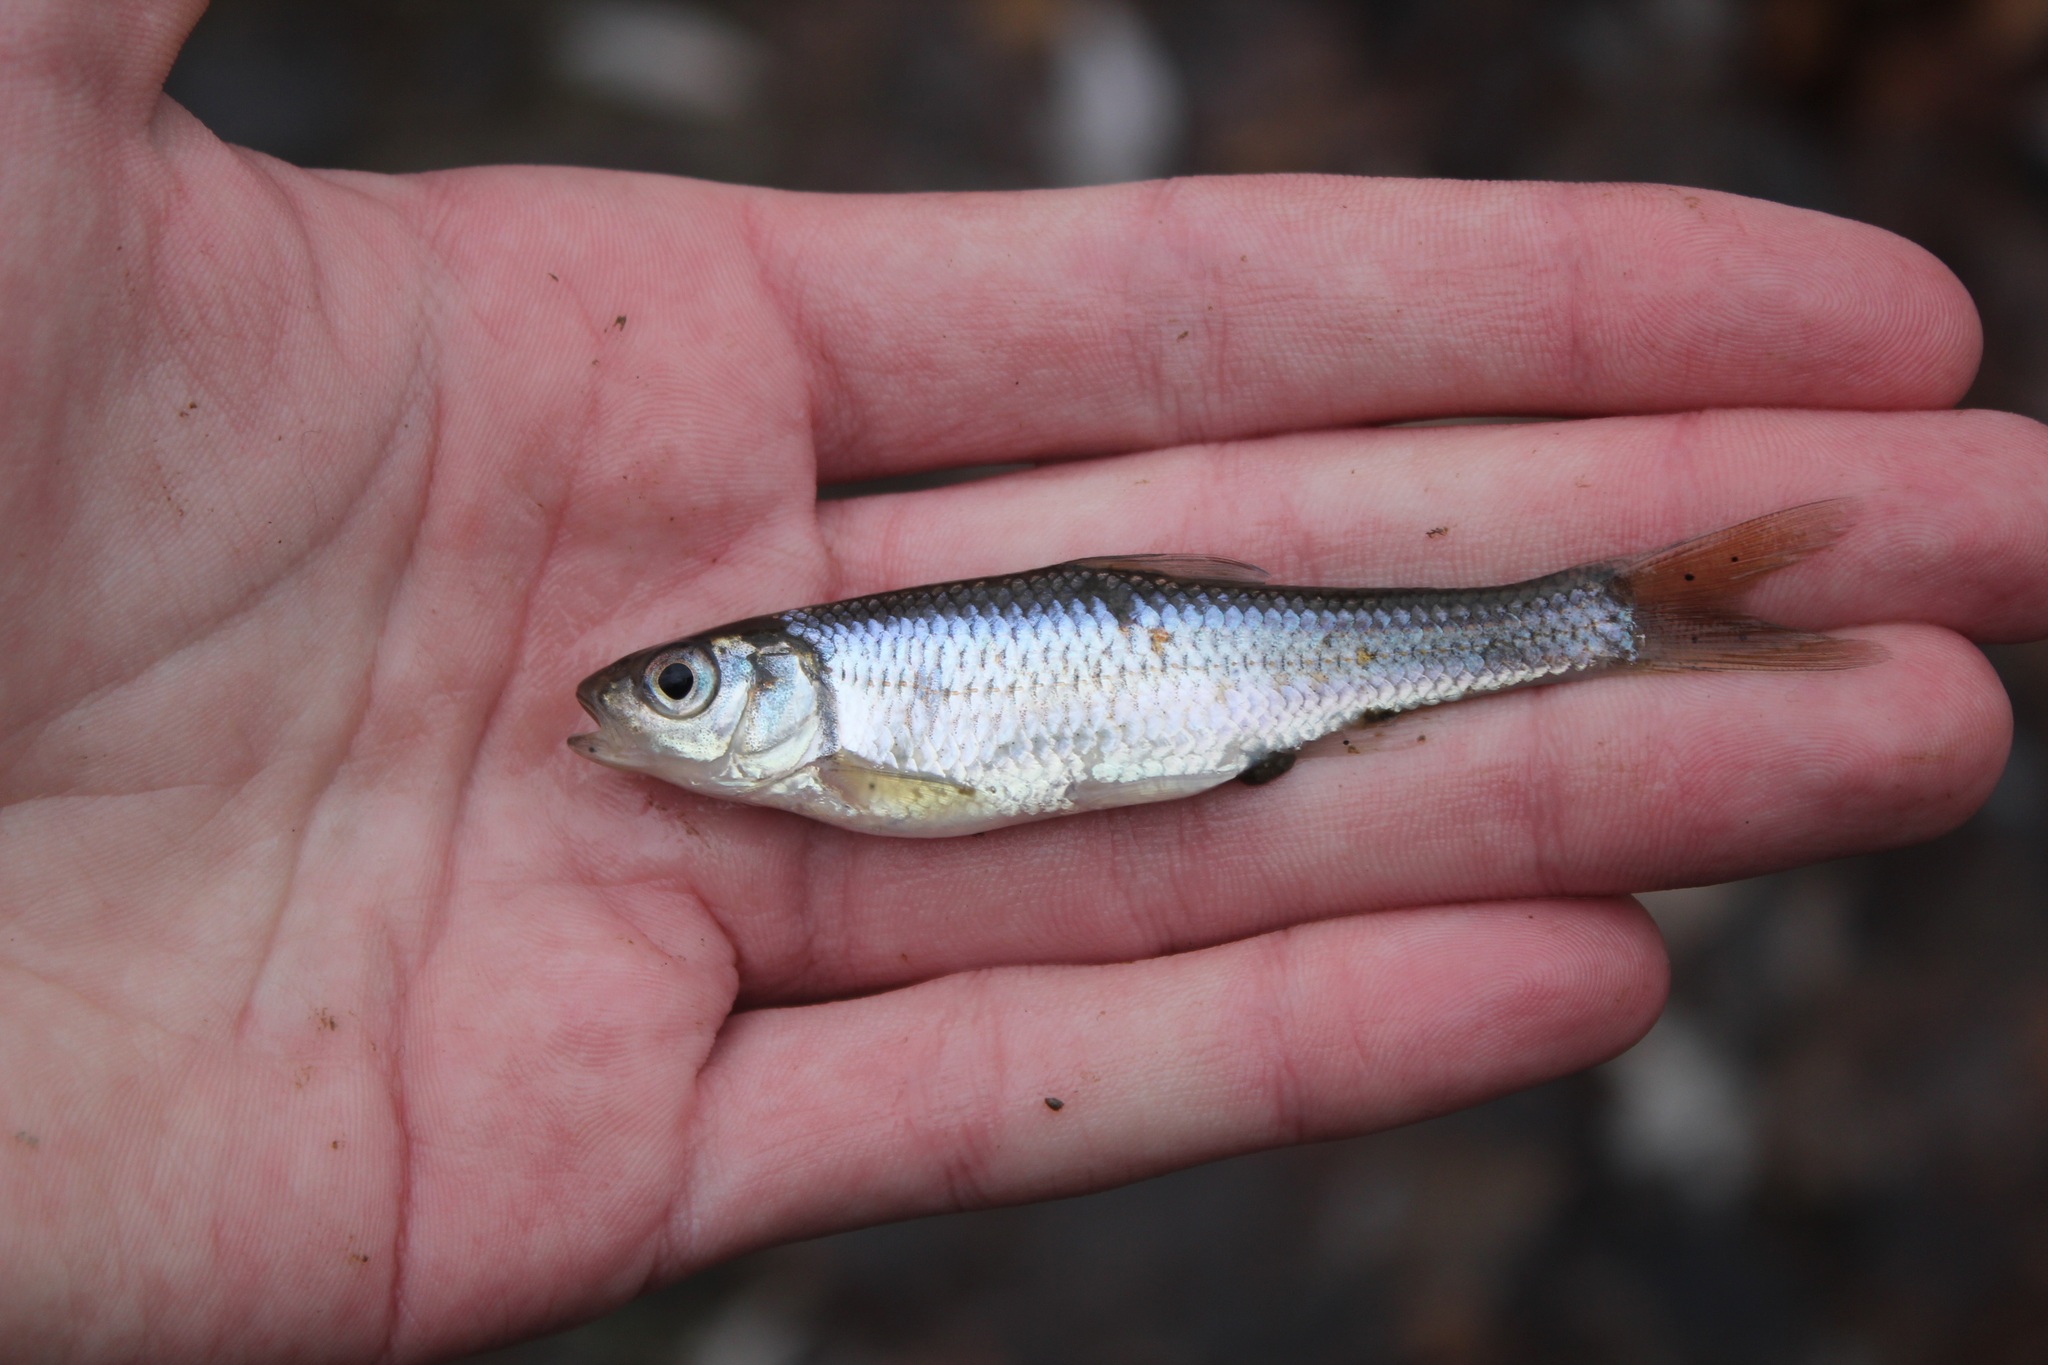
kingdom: Animalia
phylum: Chordata
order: Cypriniformes
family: Cyprinidae
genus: Luxilus
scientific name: Luxilus chrysocephalus
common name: Striped shiner
